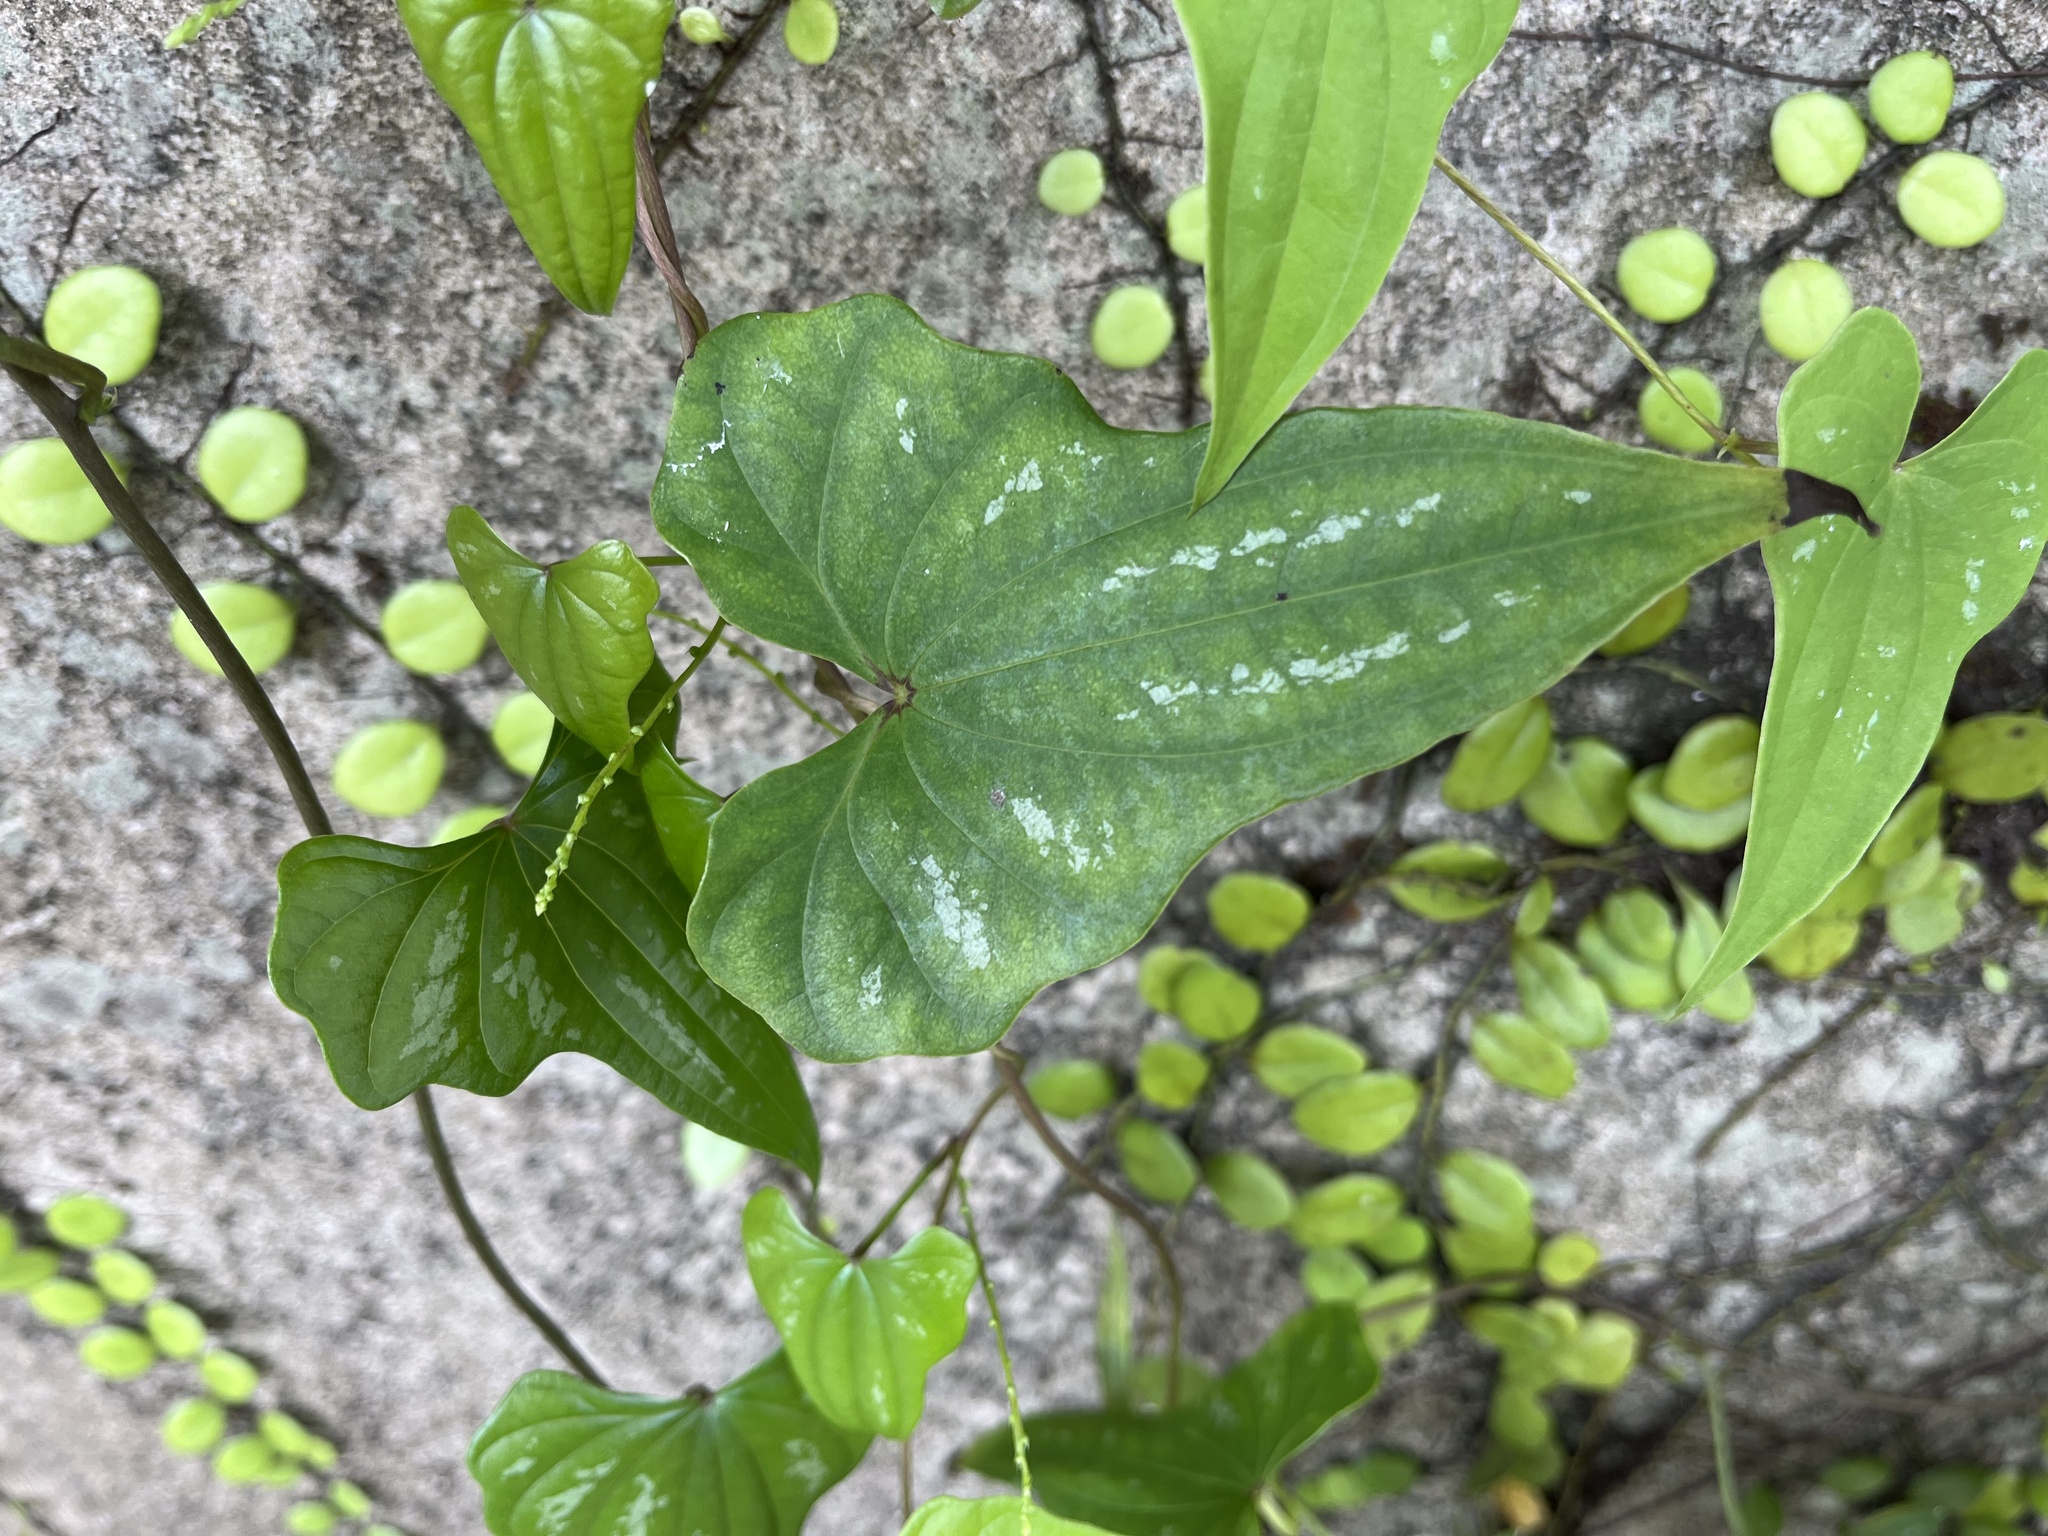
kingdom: Plantae
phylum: Tracheophyta
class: Liliopsida
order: Dioscoreales
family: Dioscoreaceae
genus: Dioscorea
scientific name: Dioscorea collettii
